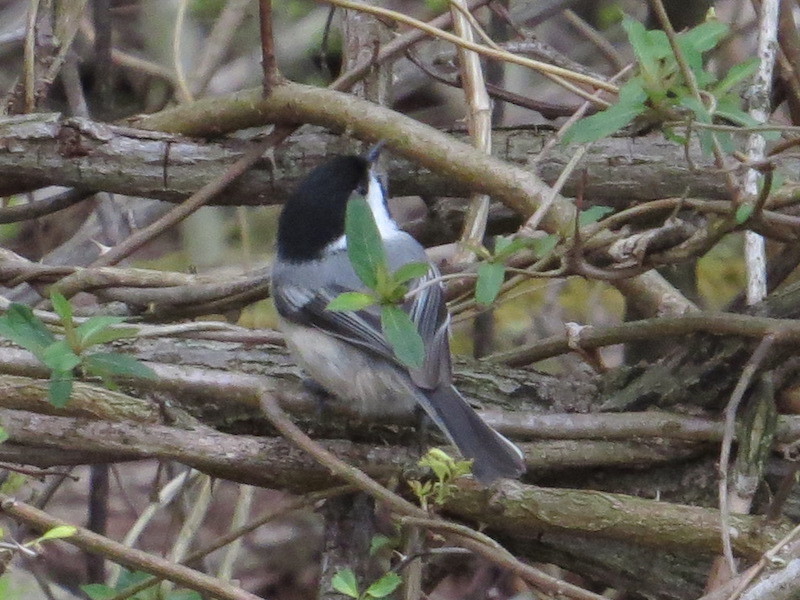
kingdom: Animalia
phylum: Chordata
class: Aves
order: Passeriformes
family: Paridae
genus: Poecile
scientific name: Poecile atricapillus
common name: Black-capped chickadee
